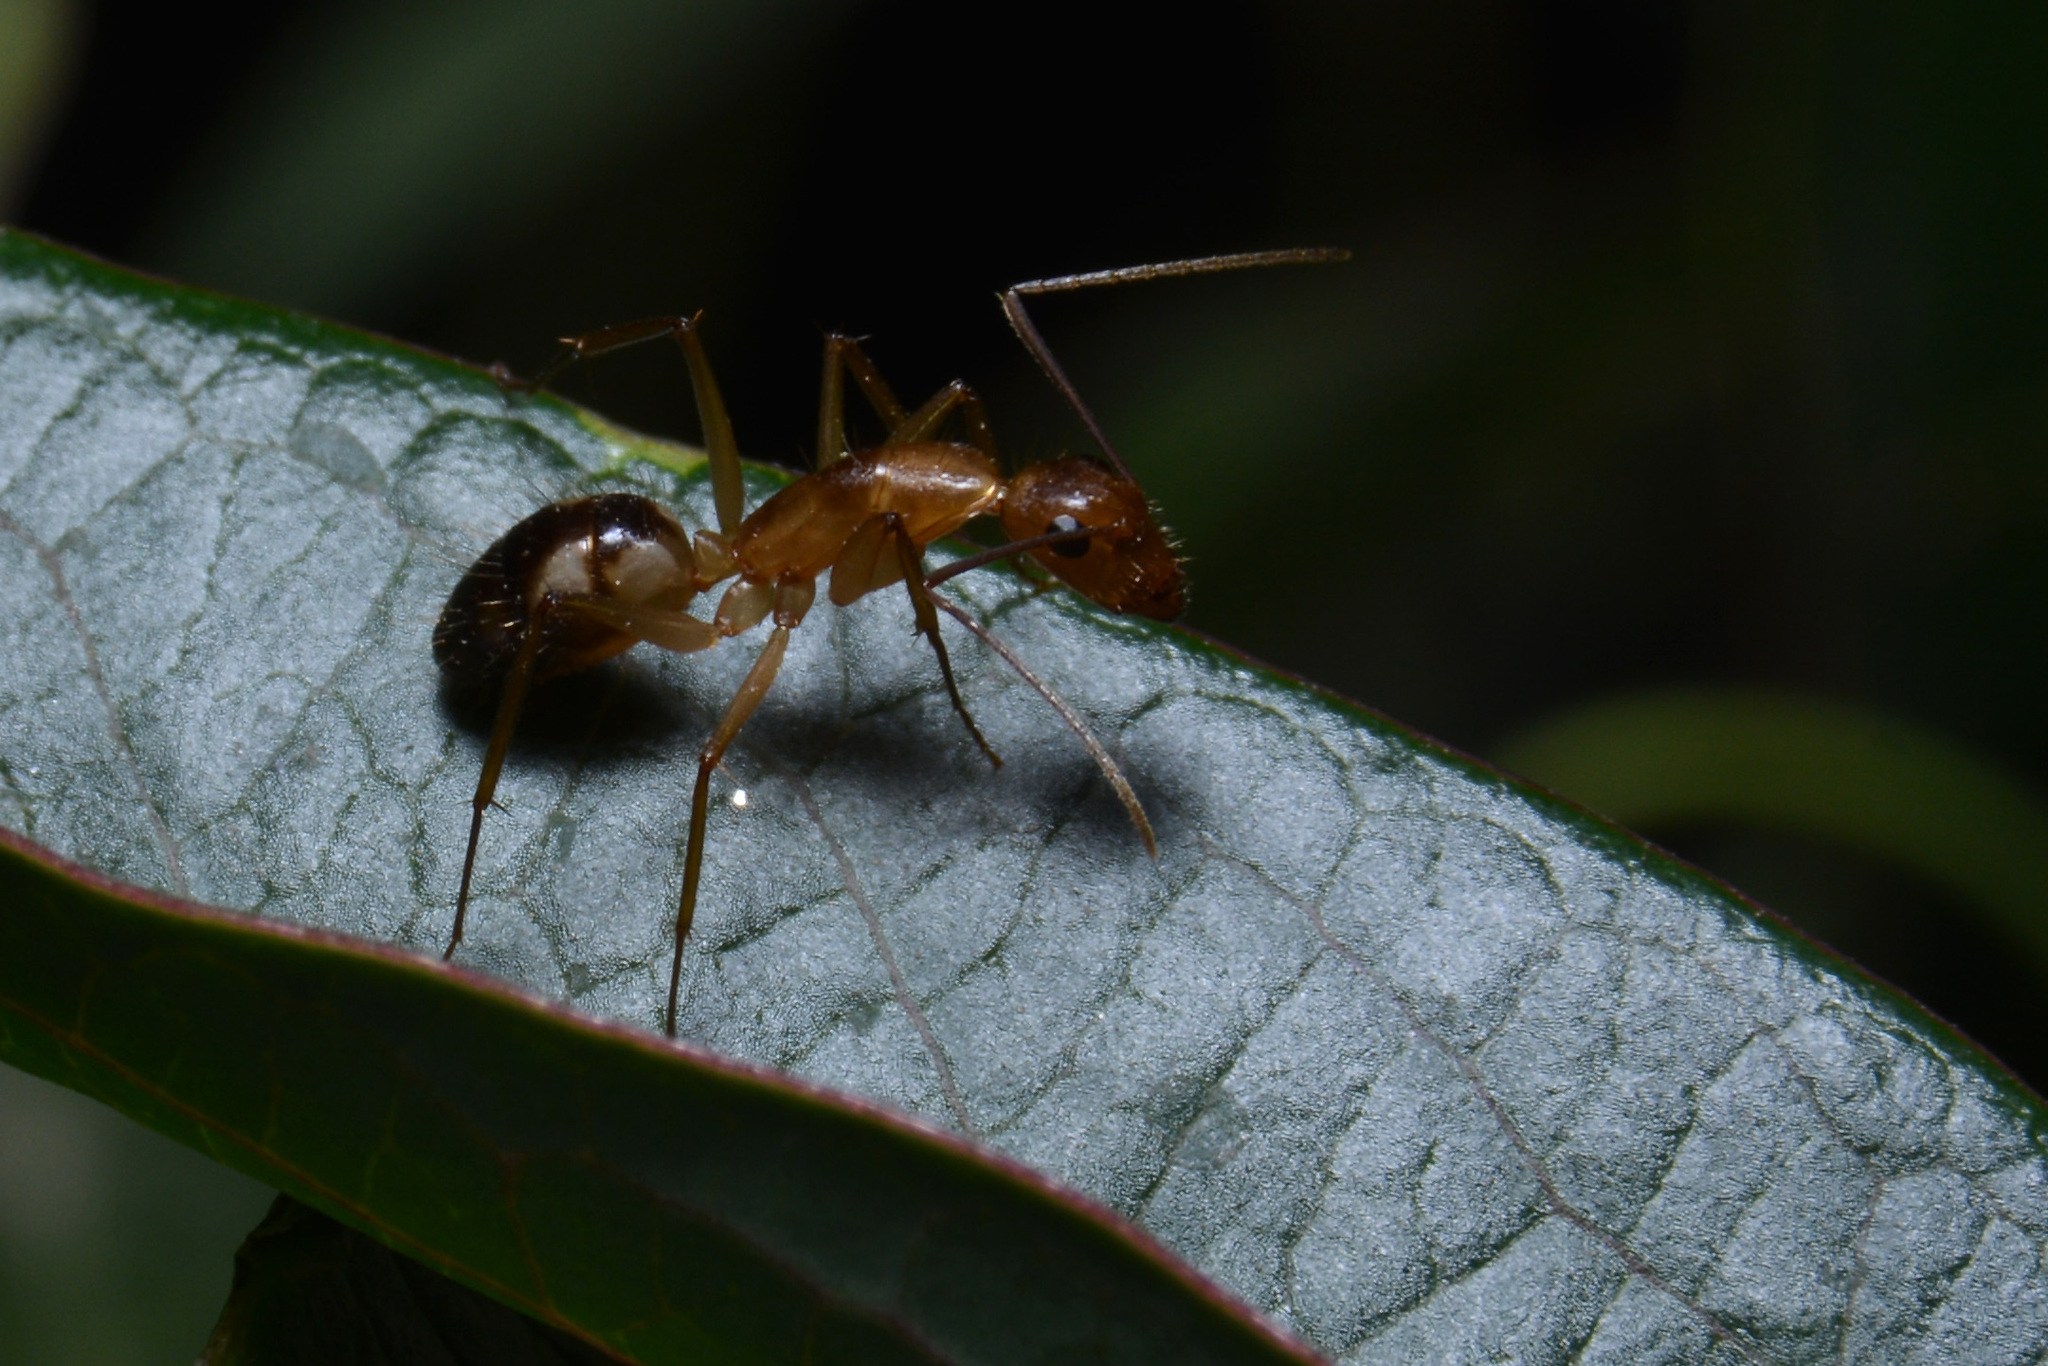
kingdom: Animalia
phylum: Arthropoda
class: Insecta
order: Hymenoptera
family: Formicidae
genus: Camponotus
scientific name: Camponotus substitutus
